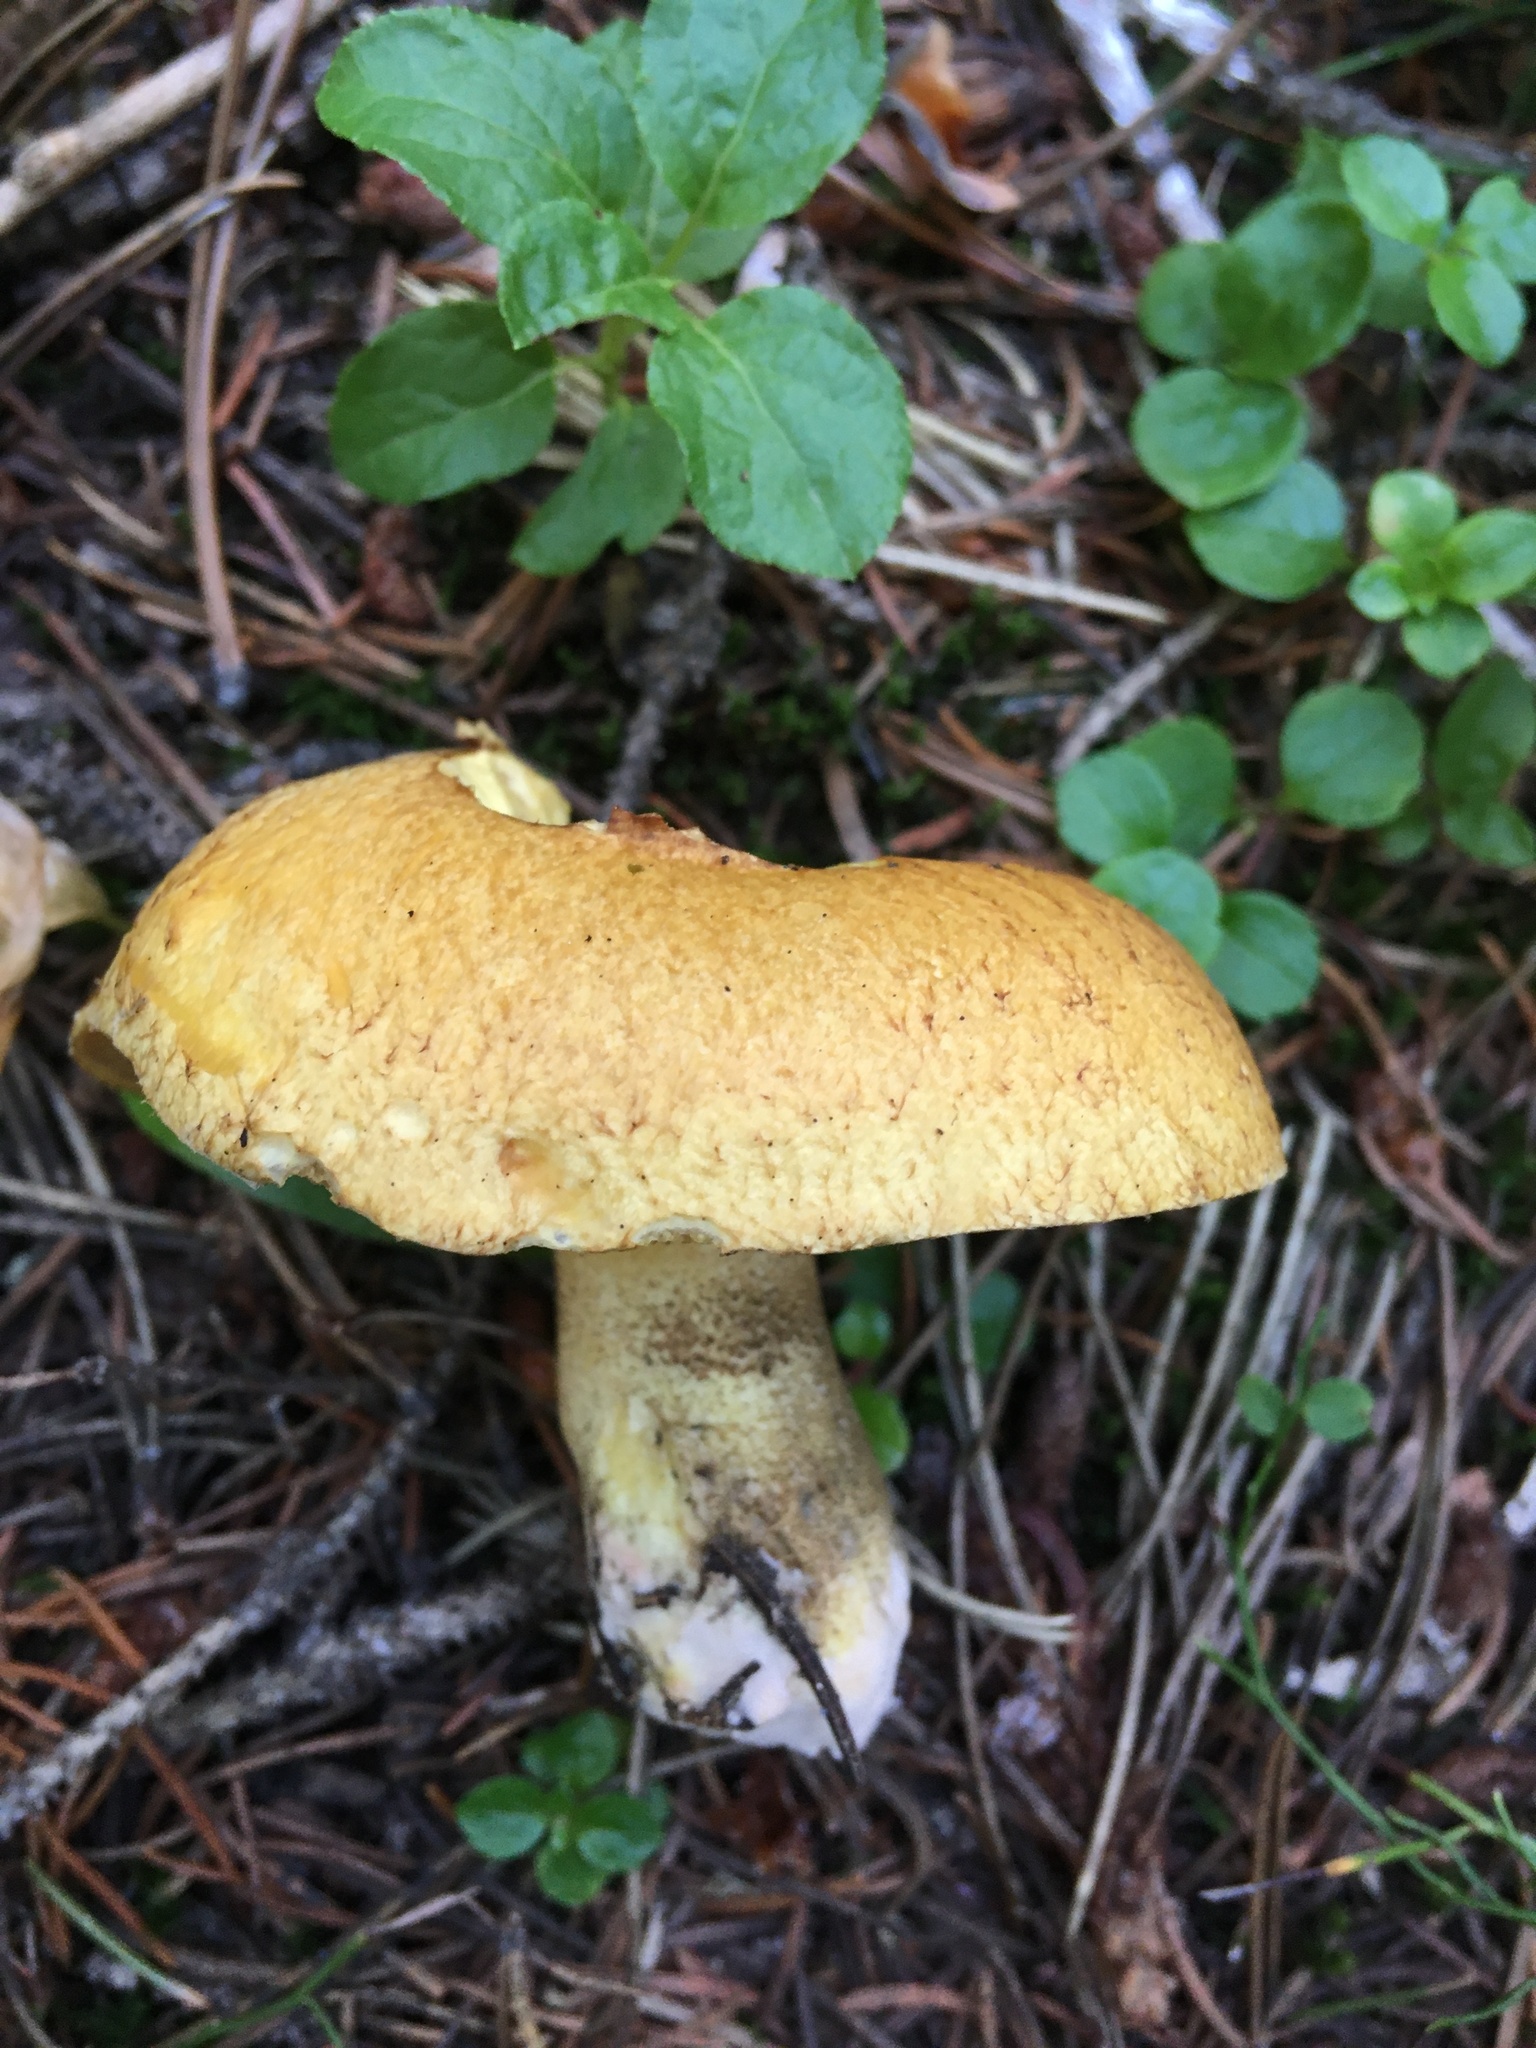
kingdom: Fungi
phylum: Basidiomycota
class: Agaricomycetes
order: Boletales
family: Suillaceae
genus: Suillus
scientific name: Suillus tomentosus
